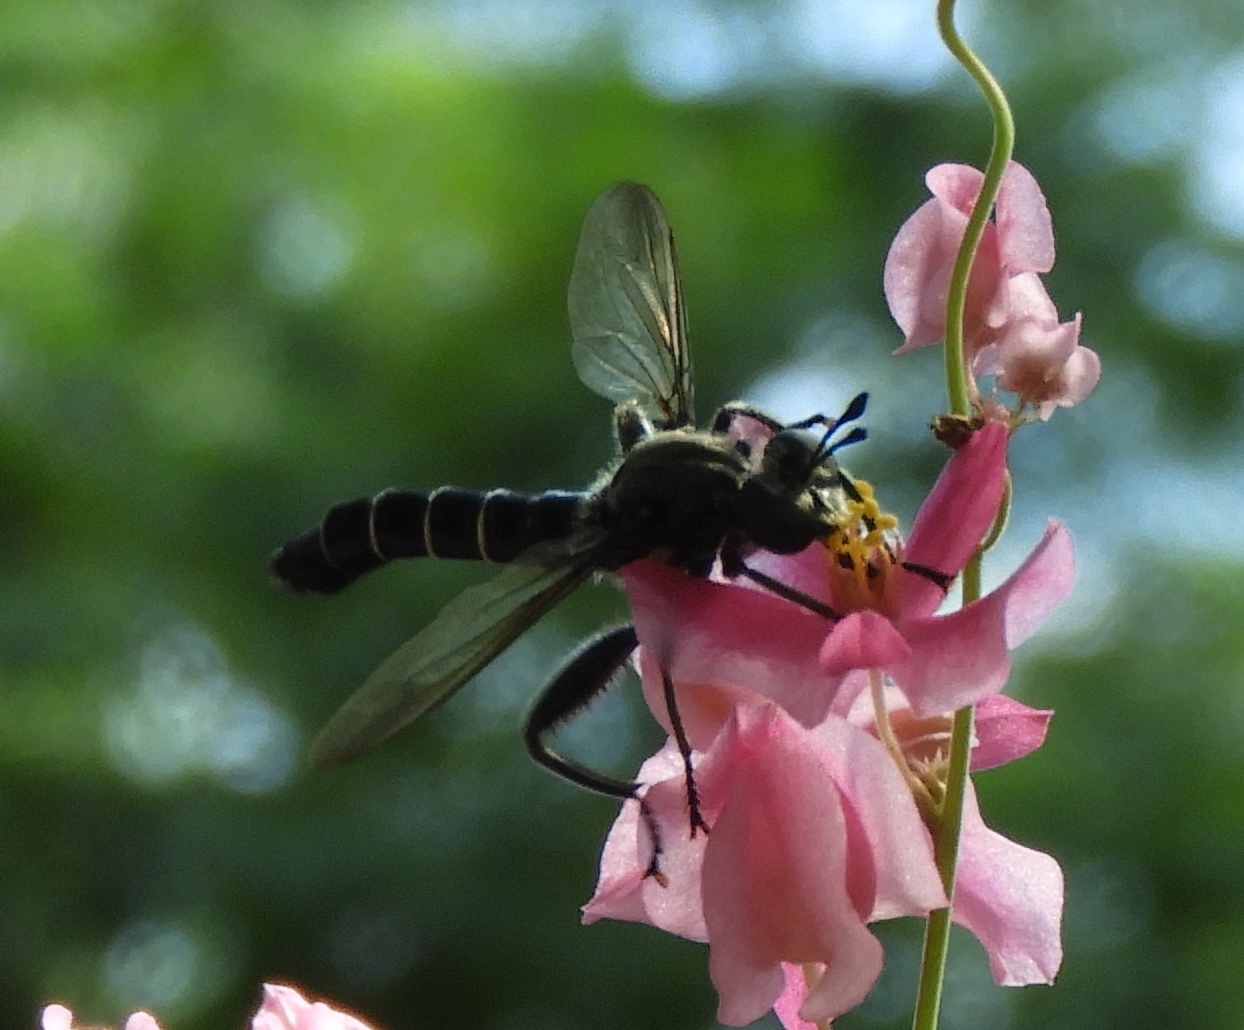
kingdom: Animalia
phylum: Arthropoda
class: Insecta
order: Diptera
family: Mydidae
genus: Mydas
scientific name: Mydas
